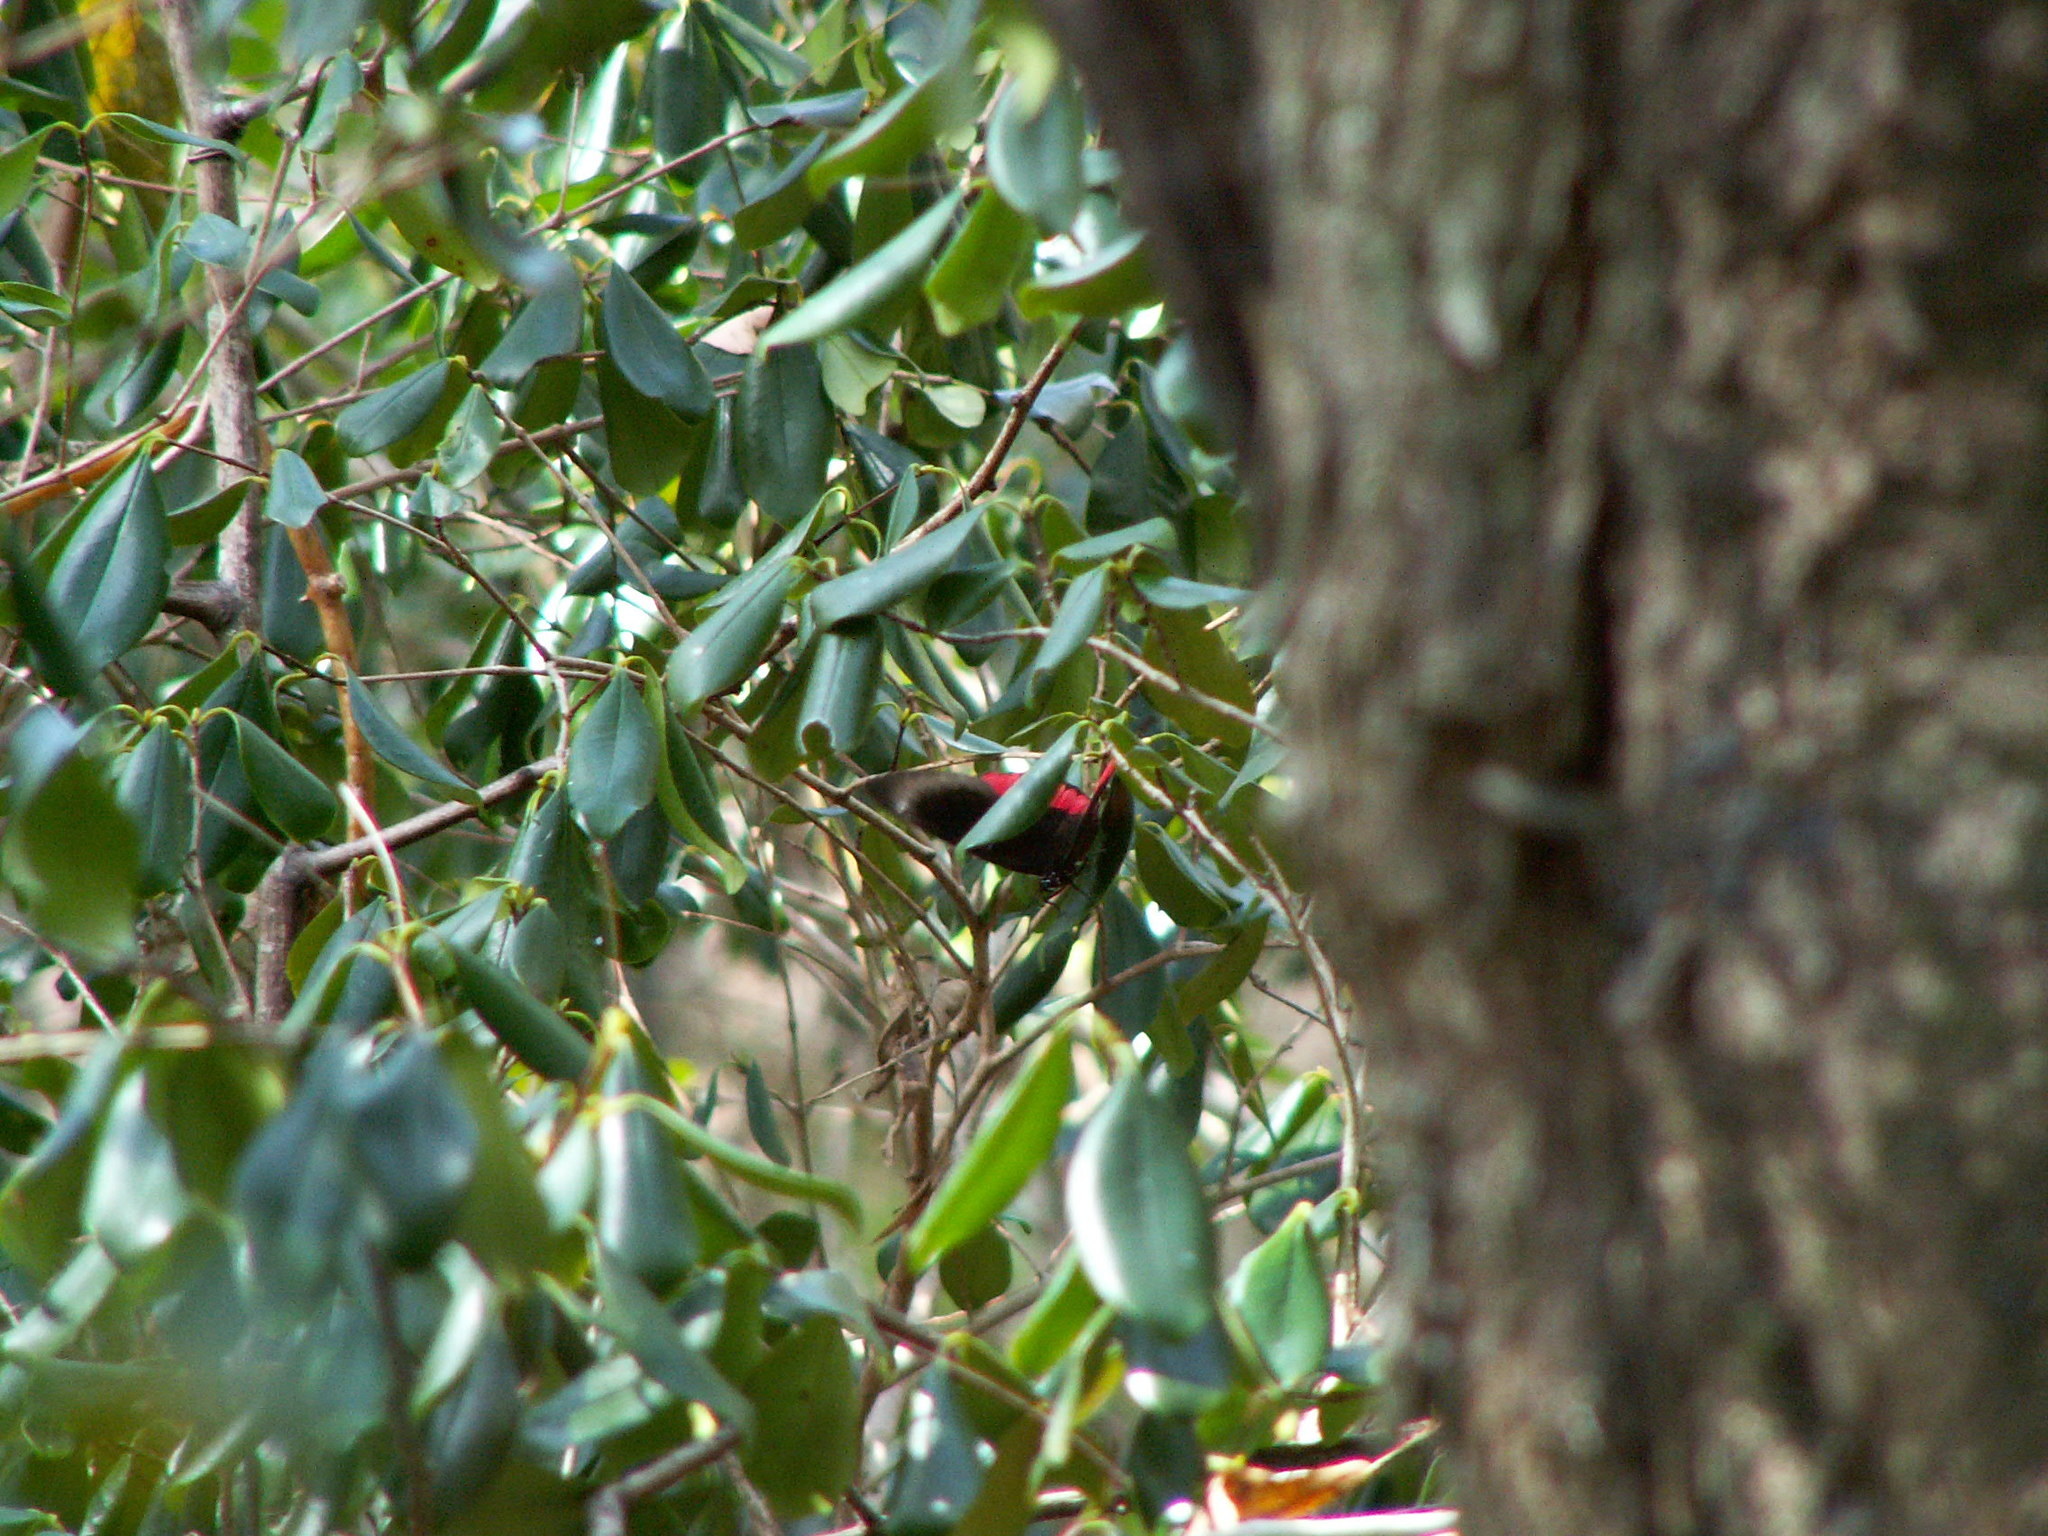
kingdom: Animalia
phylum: Arthropoda
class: Insecta
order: Lepidoptera
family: Sesiidae
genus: Sesia
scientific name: Sesia Biblis hyperia
